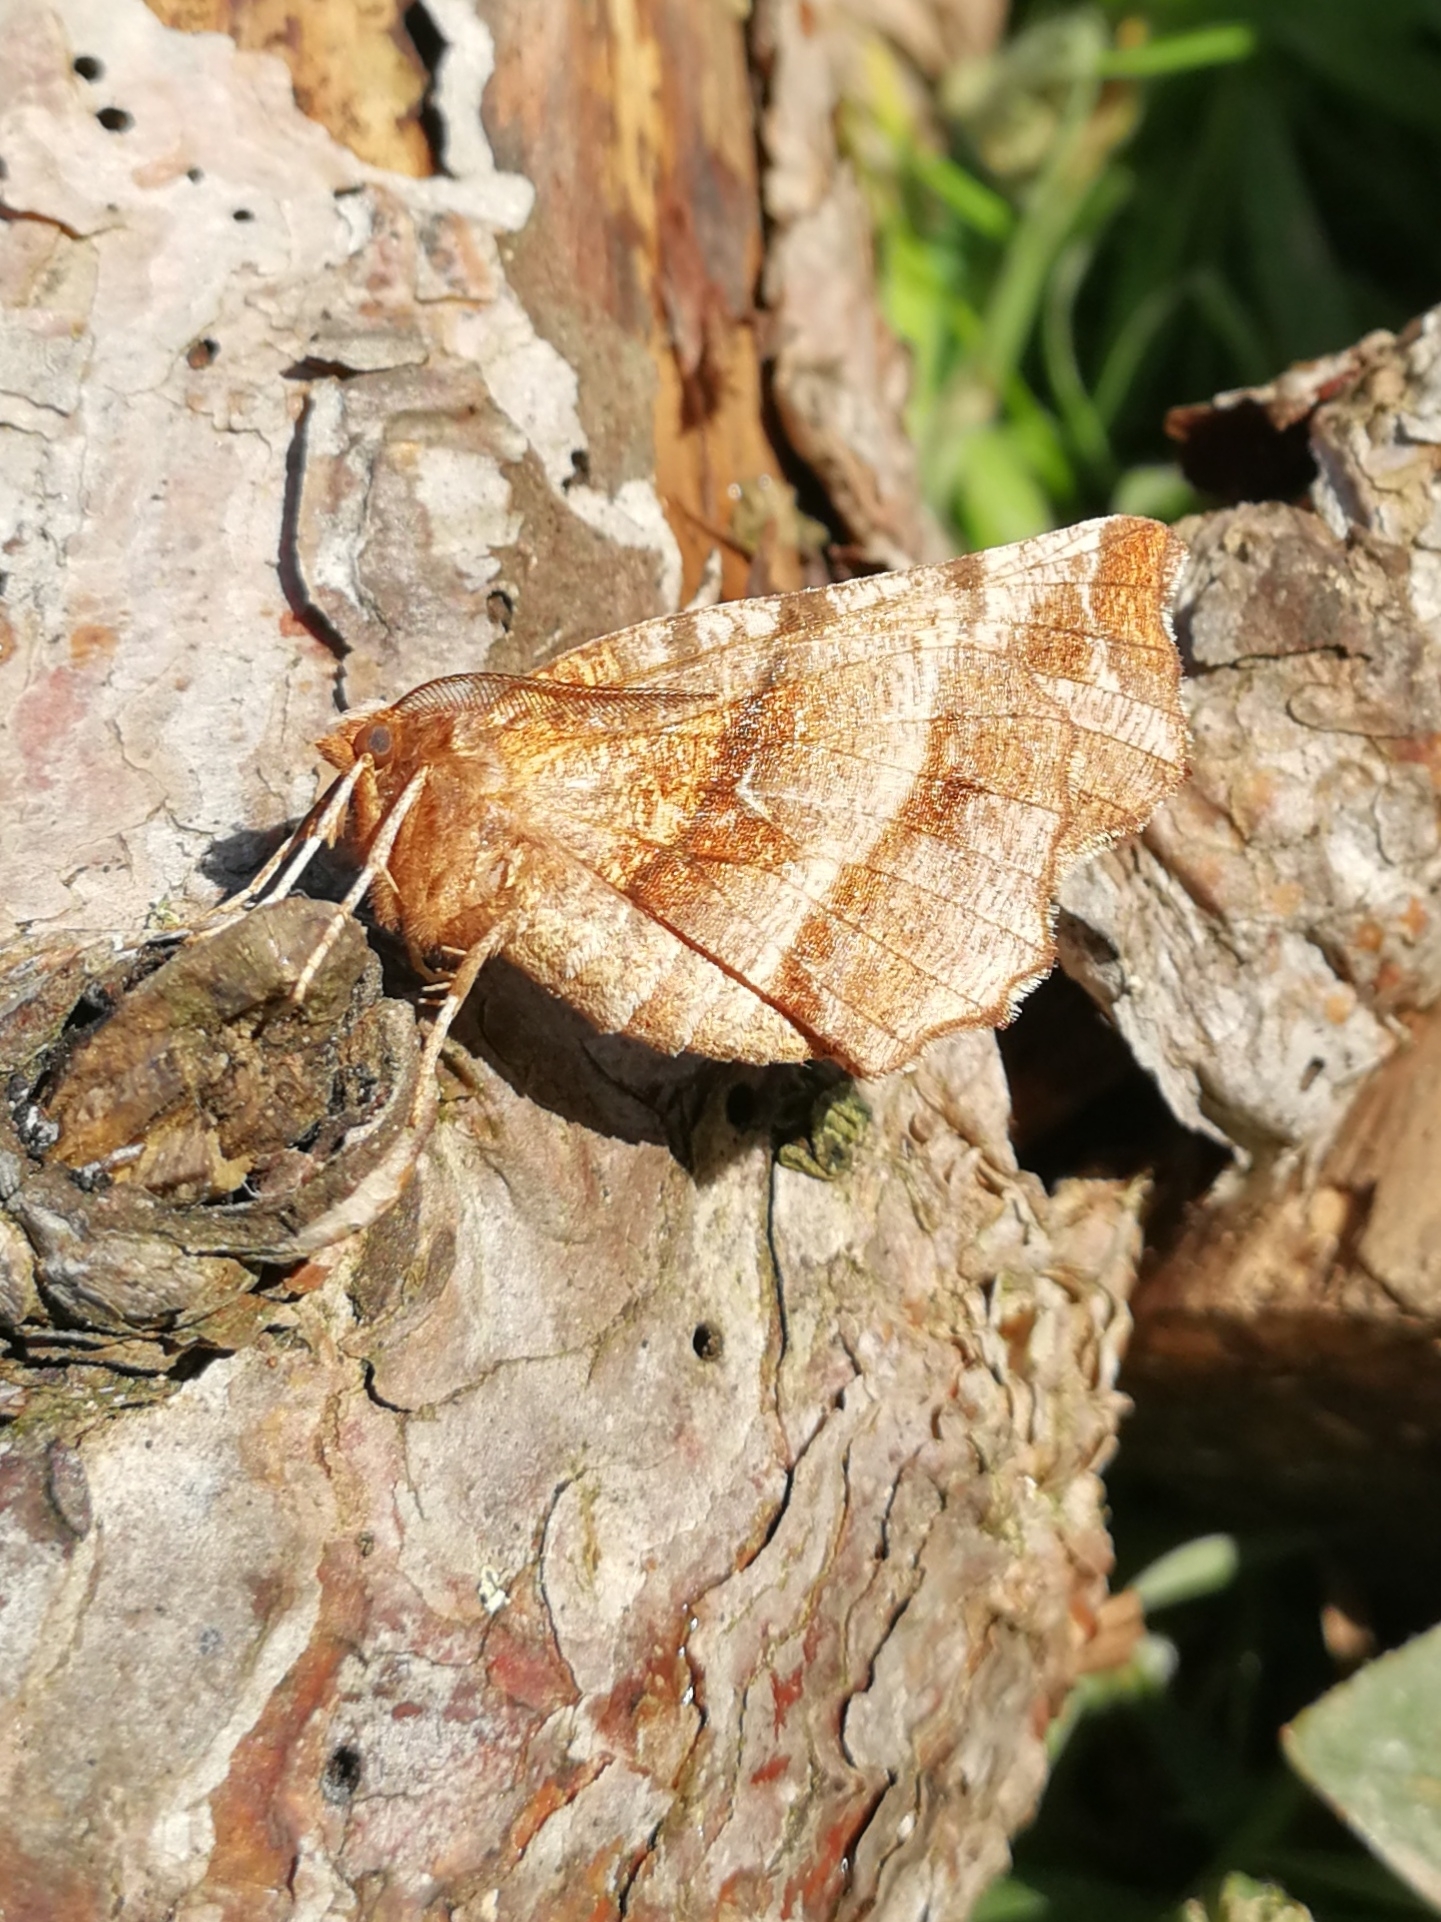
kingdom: Animalia
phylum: Arthropoda
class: Insecta
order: Lepidoptera
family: Geometridae
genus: Selenia
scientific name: Selenia dentaria
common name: Early thorn
